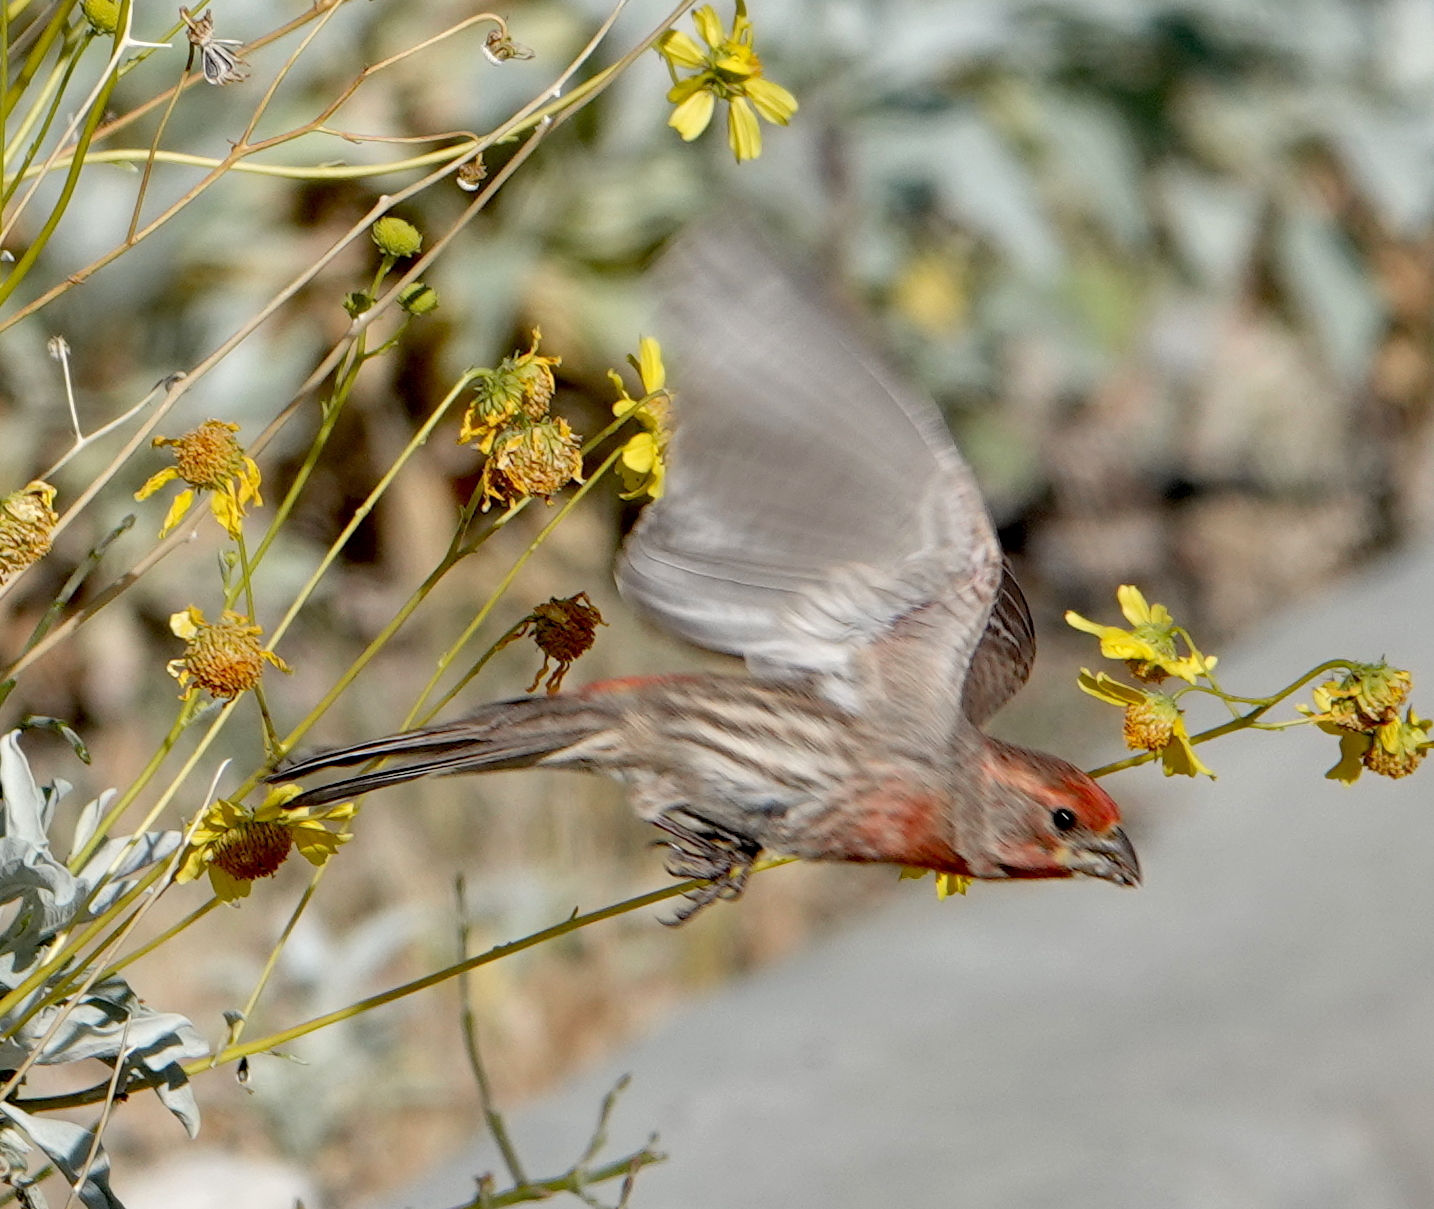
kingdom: Animalia
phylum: Chordata
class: Aves
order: Passeriformes
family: Fringillidae
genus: Haemorhous
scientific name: Haemorhous mexicanus
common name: House finch
